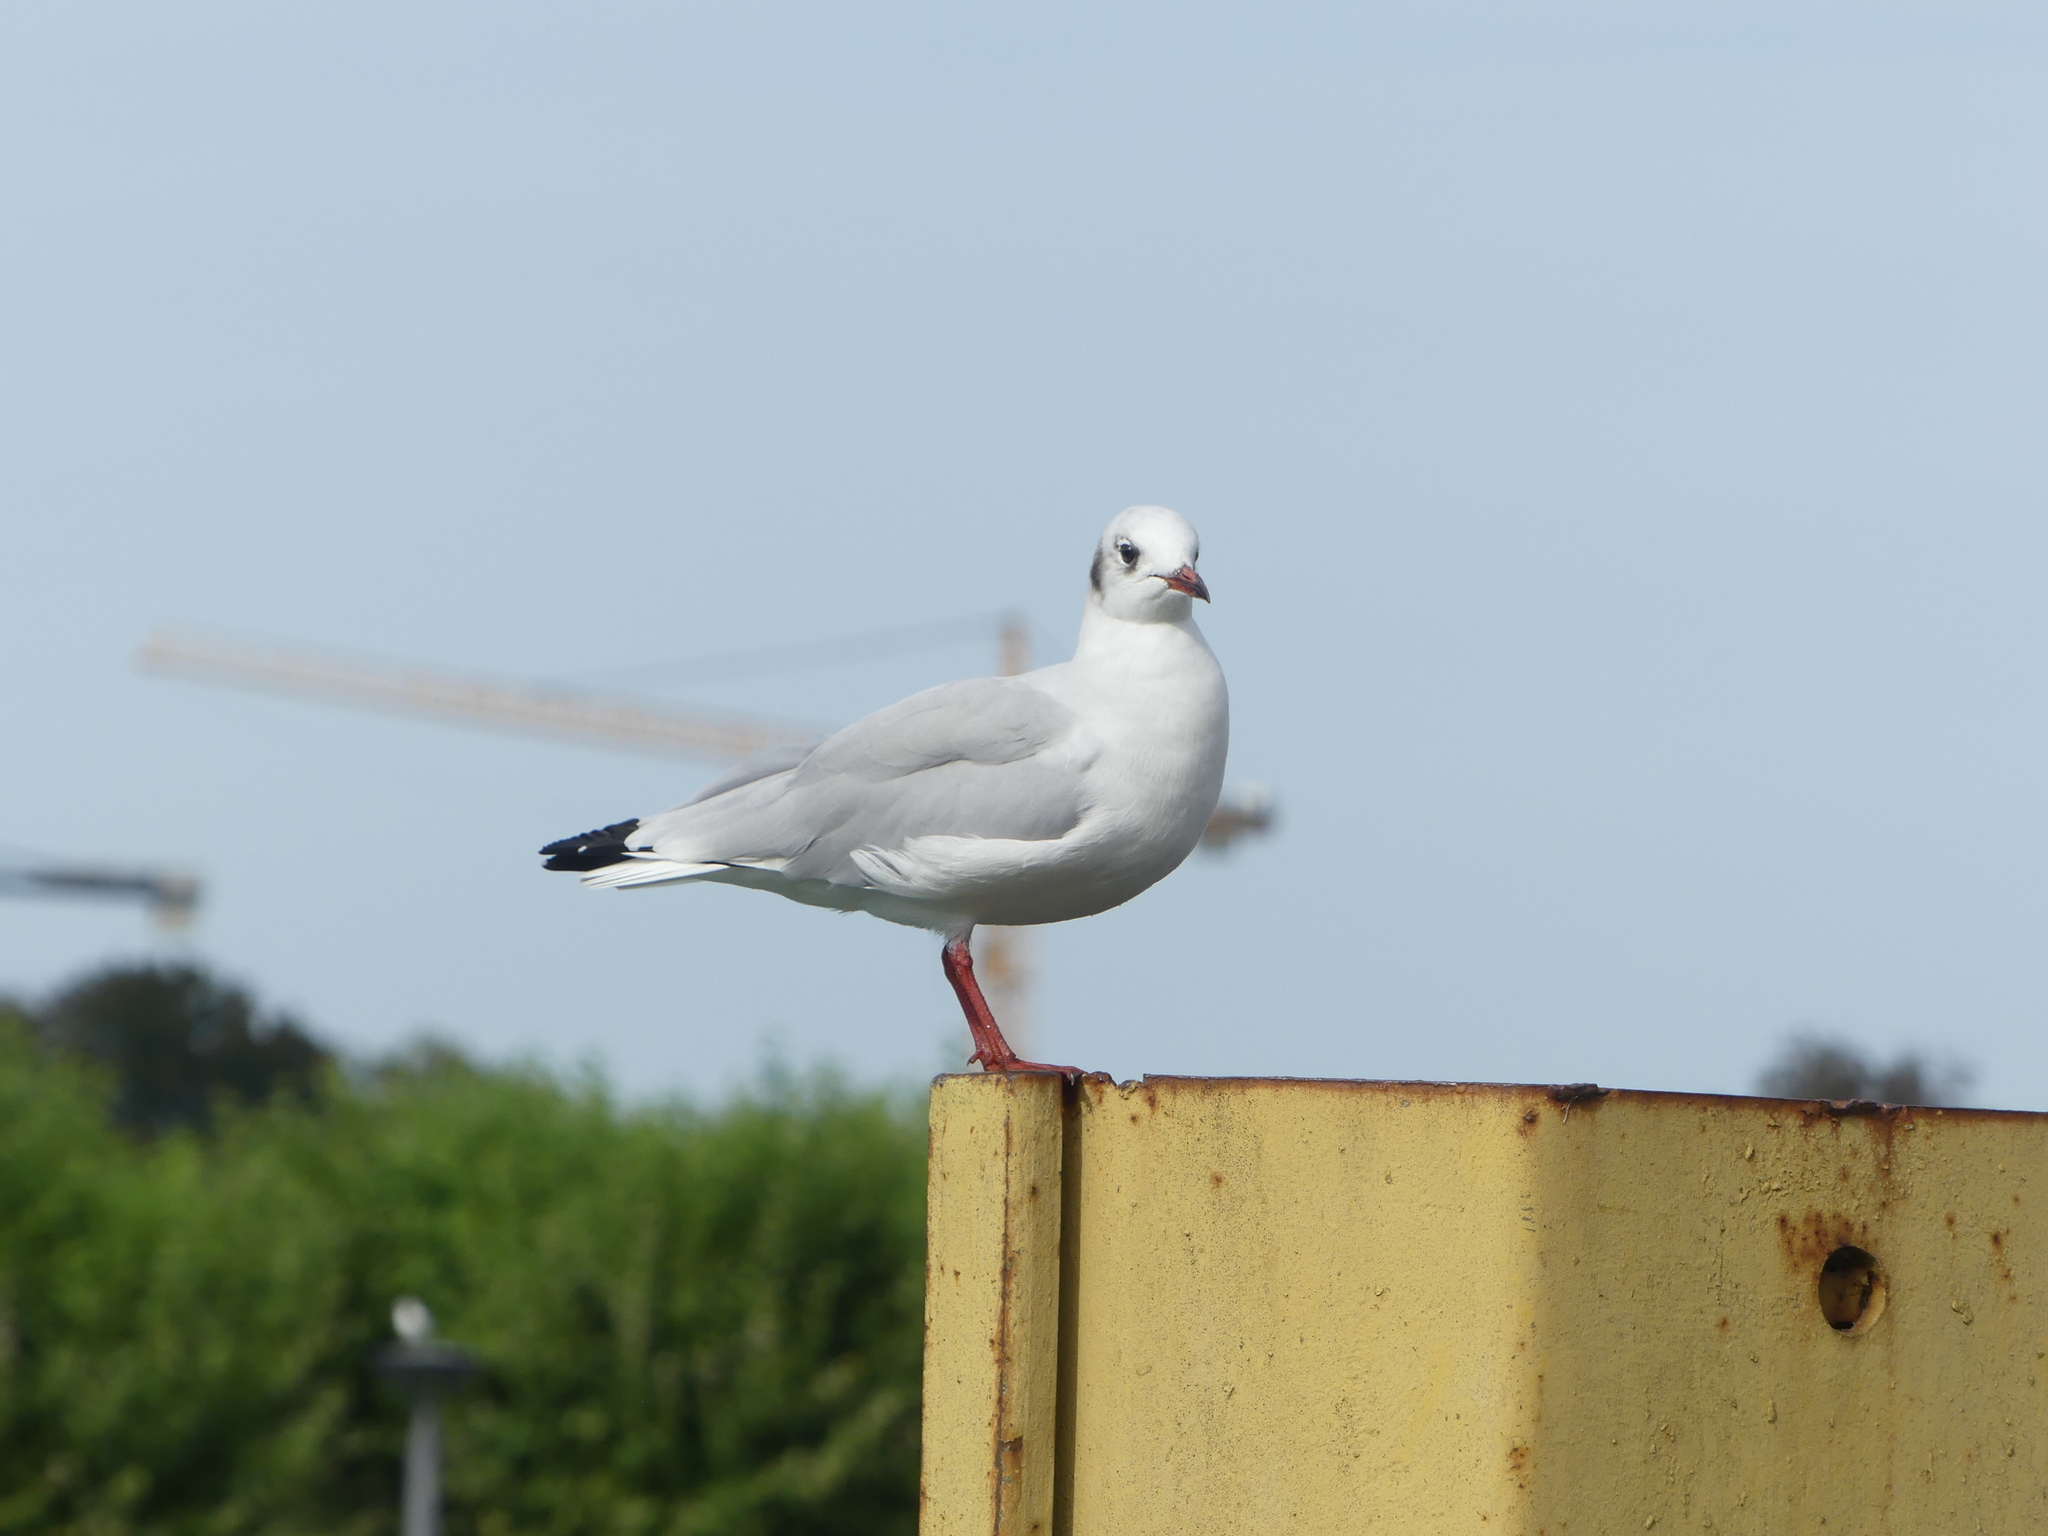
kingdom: Animalia
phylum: Chordata
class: Aves
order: Charadriiformes
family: Laridae
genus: Chroicocephalus
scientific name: Chroicocephalus ridibundus
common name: Black-headed gull
